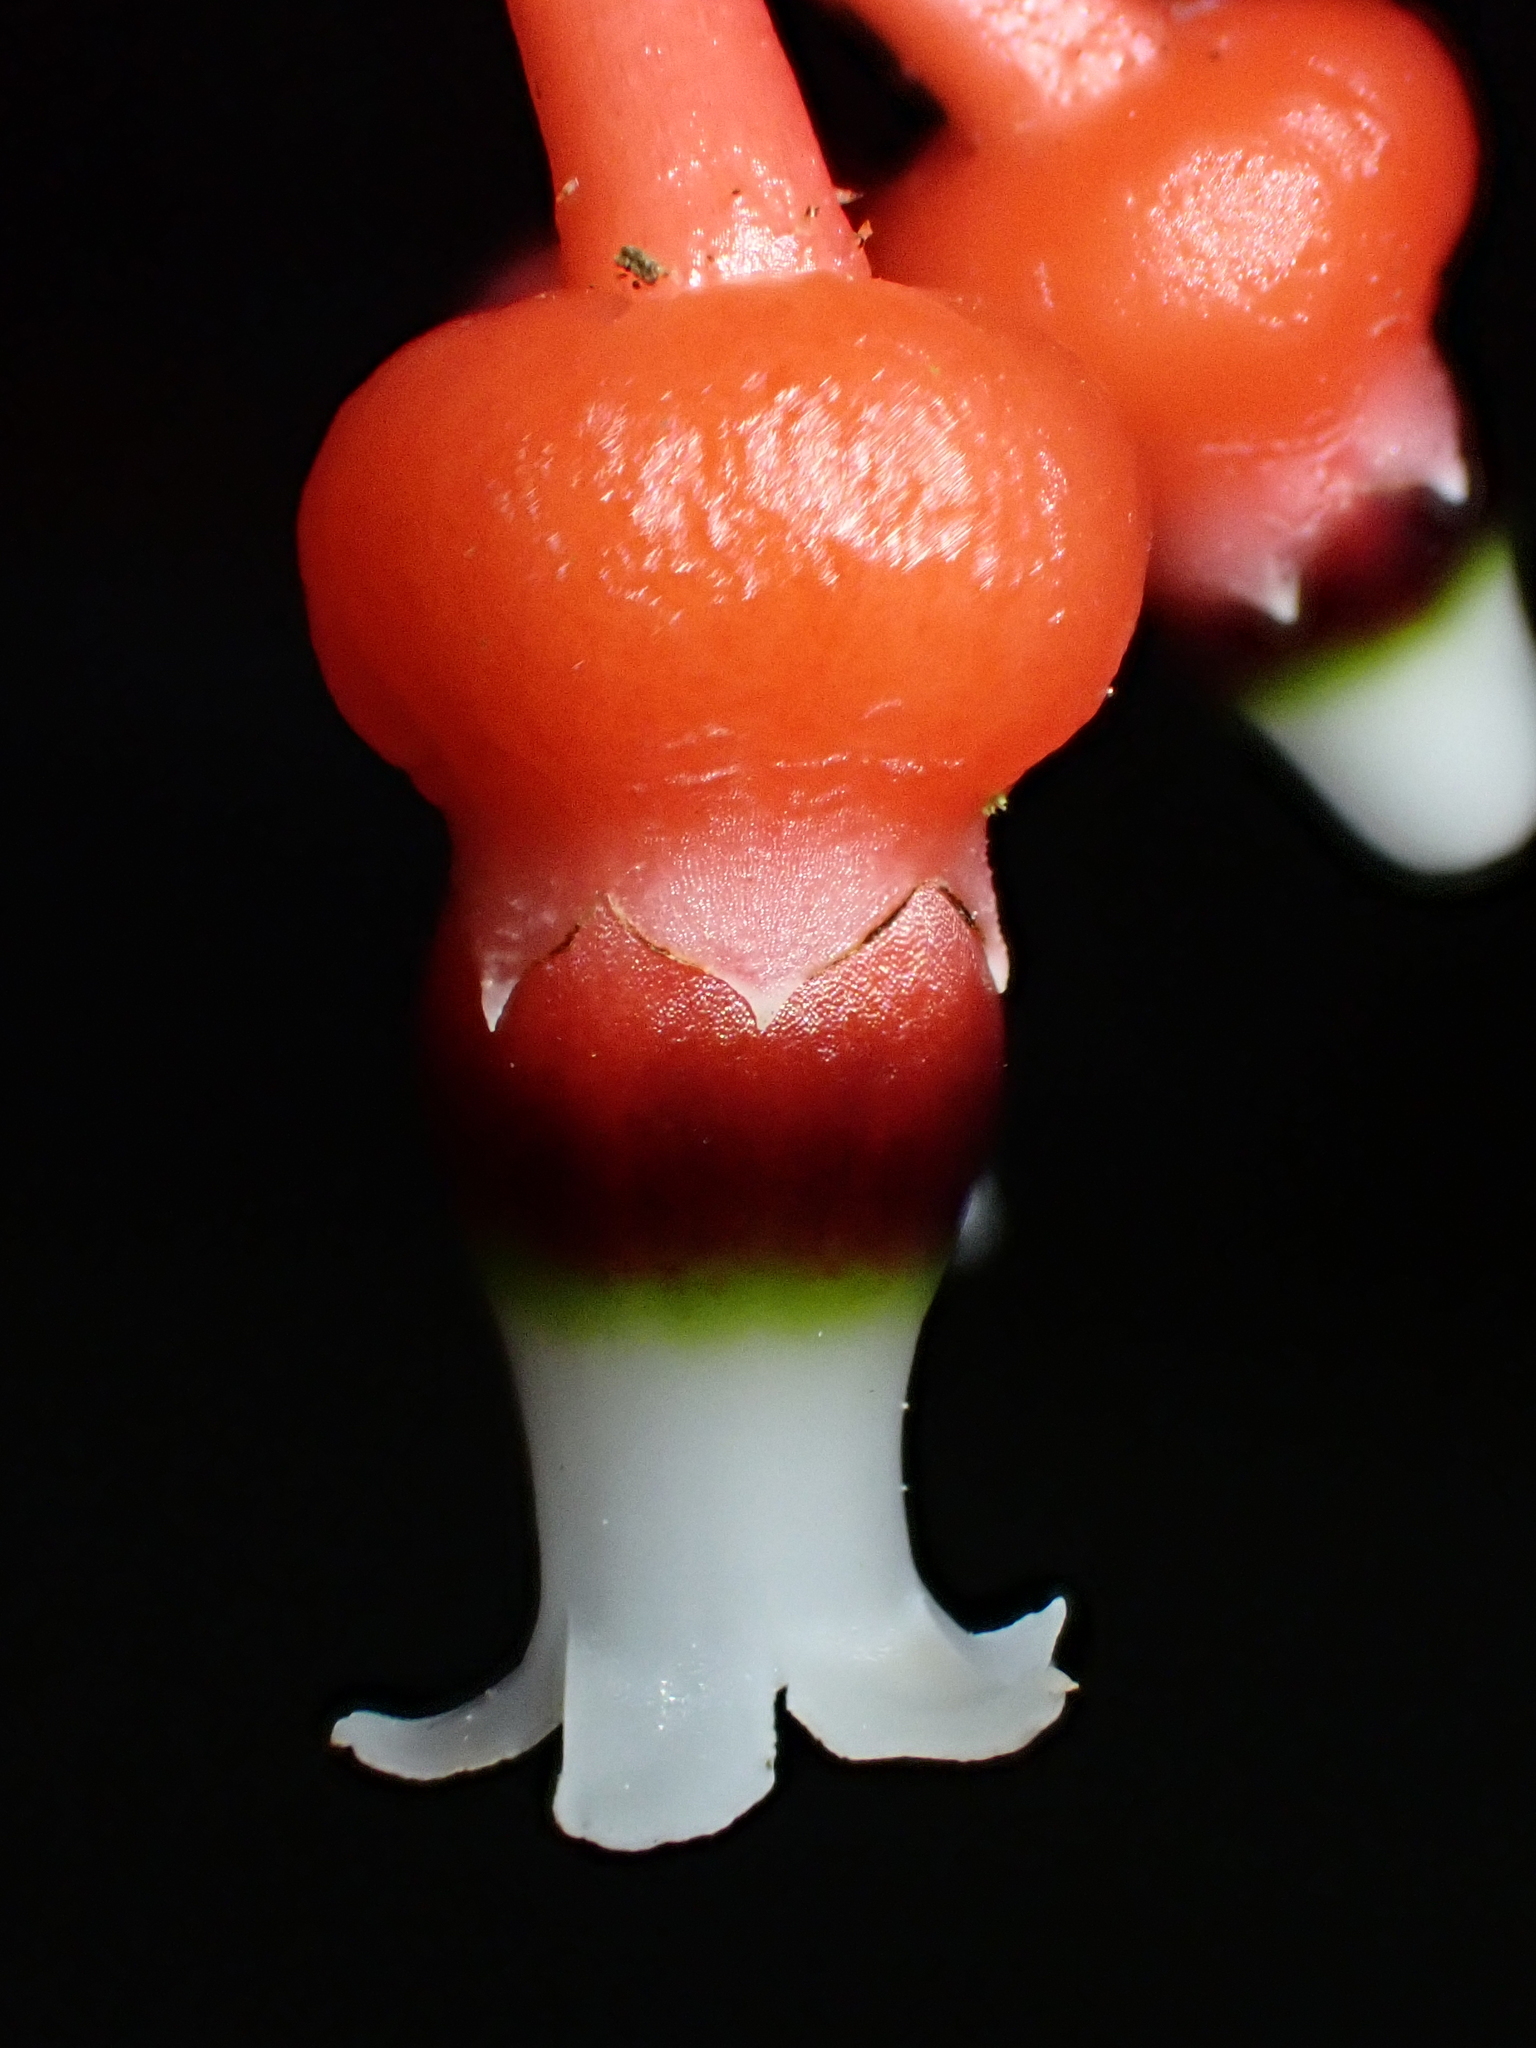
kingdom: Plantae
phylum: Tracheophyta
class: Magnoliopsida
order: Ericales
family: Ericaceae
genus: Psammisia
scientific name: Psammisia caloneura
